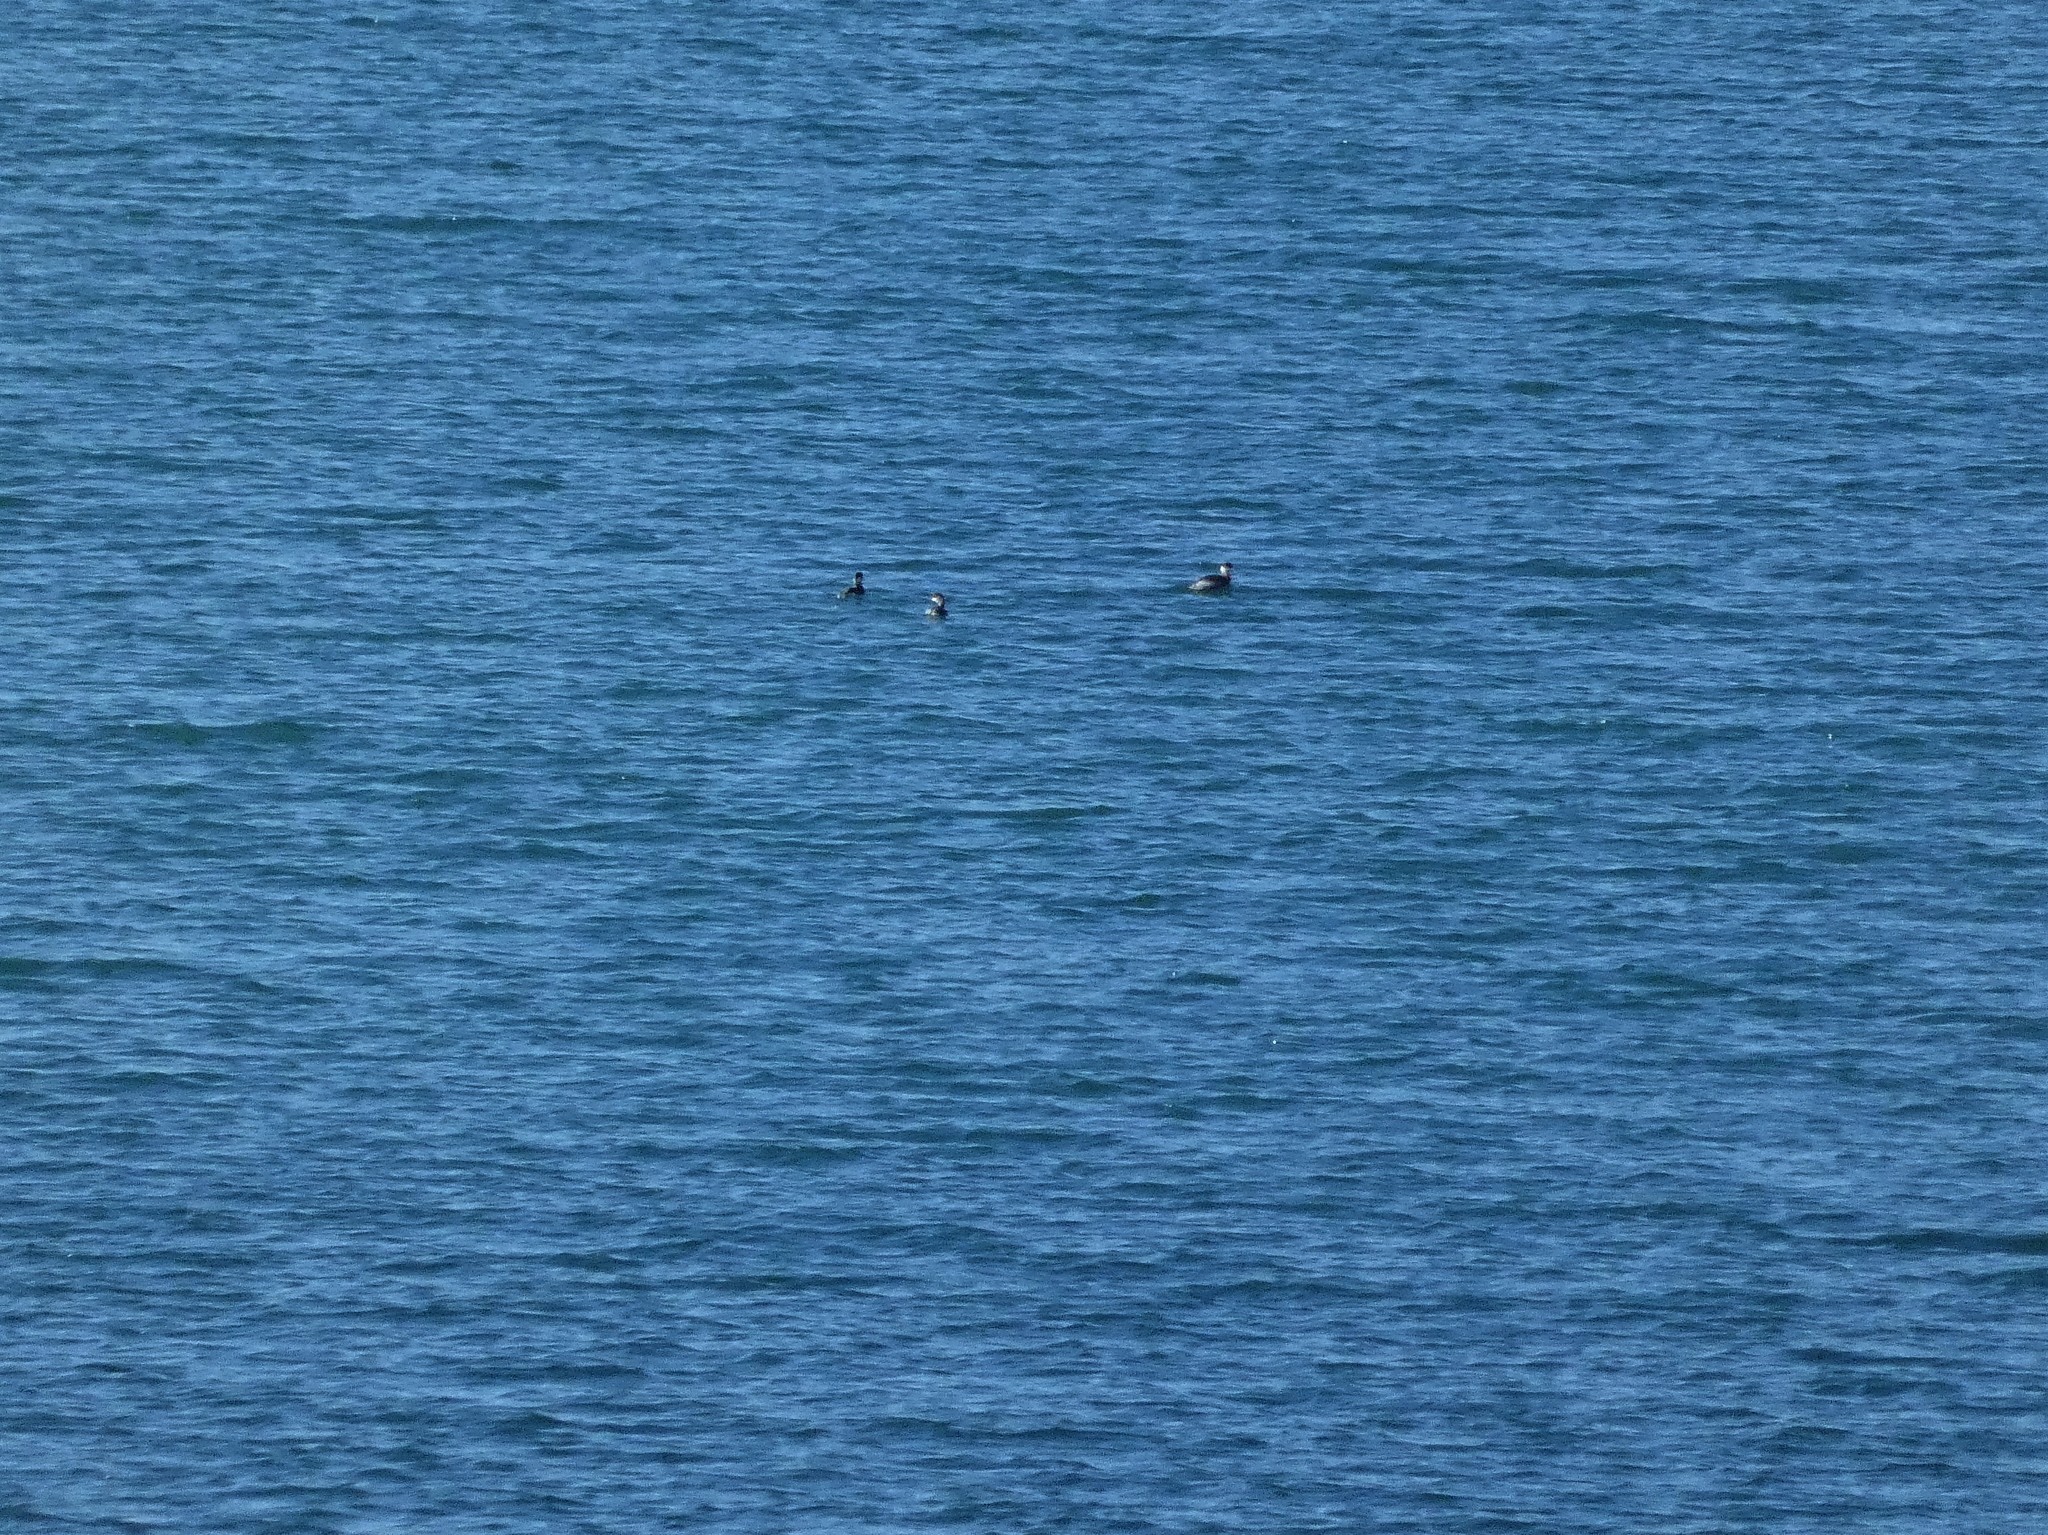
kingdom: Animalia
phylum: Chordata
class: Aves
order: Podicipediformes
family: Podicipedidae
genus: Podiceps
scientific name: Podiceps nigricollis
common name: Black-necked grebe
